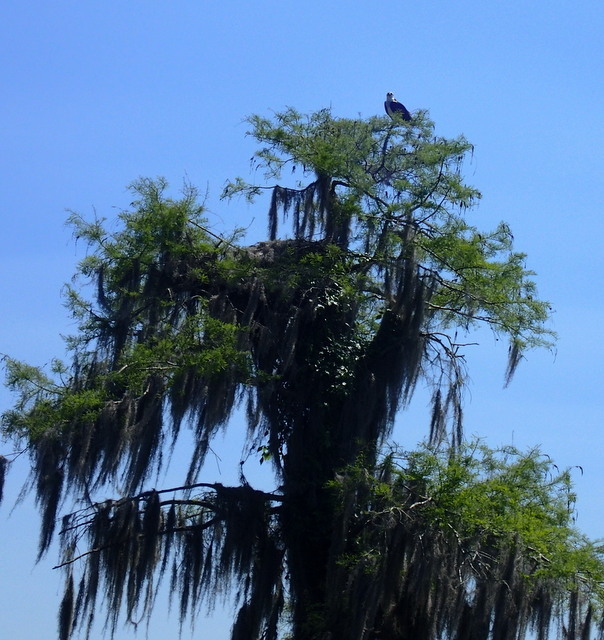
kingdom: Animalia
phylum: Chordata
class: Aves
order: Accipitriformes
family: Pandionidae
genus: Pandion
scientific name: Pandion haliaetus
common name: Osprey
